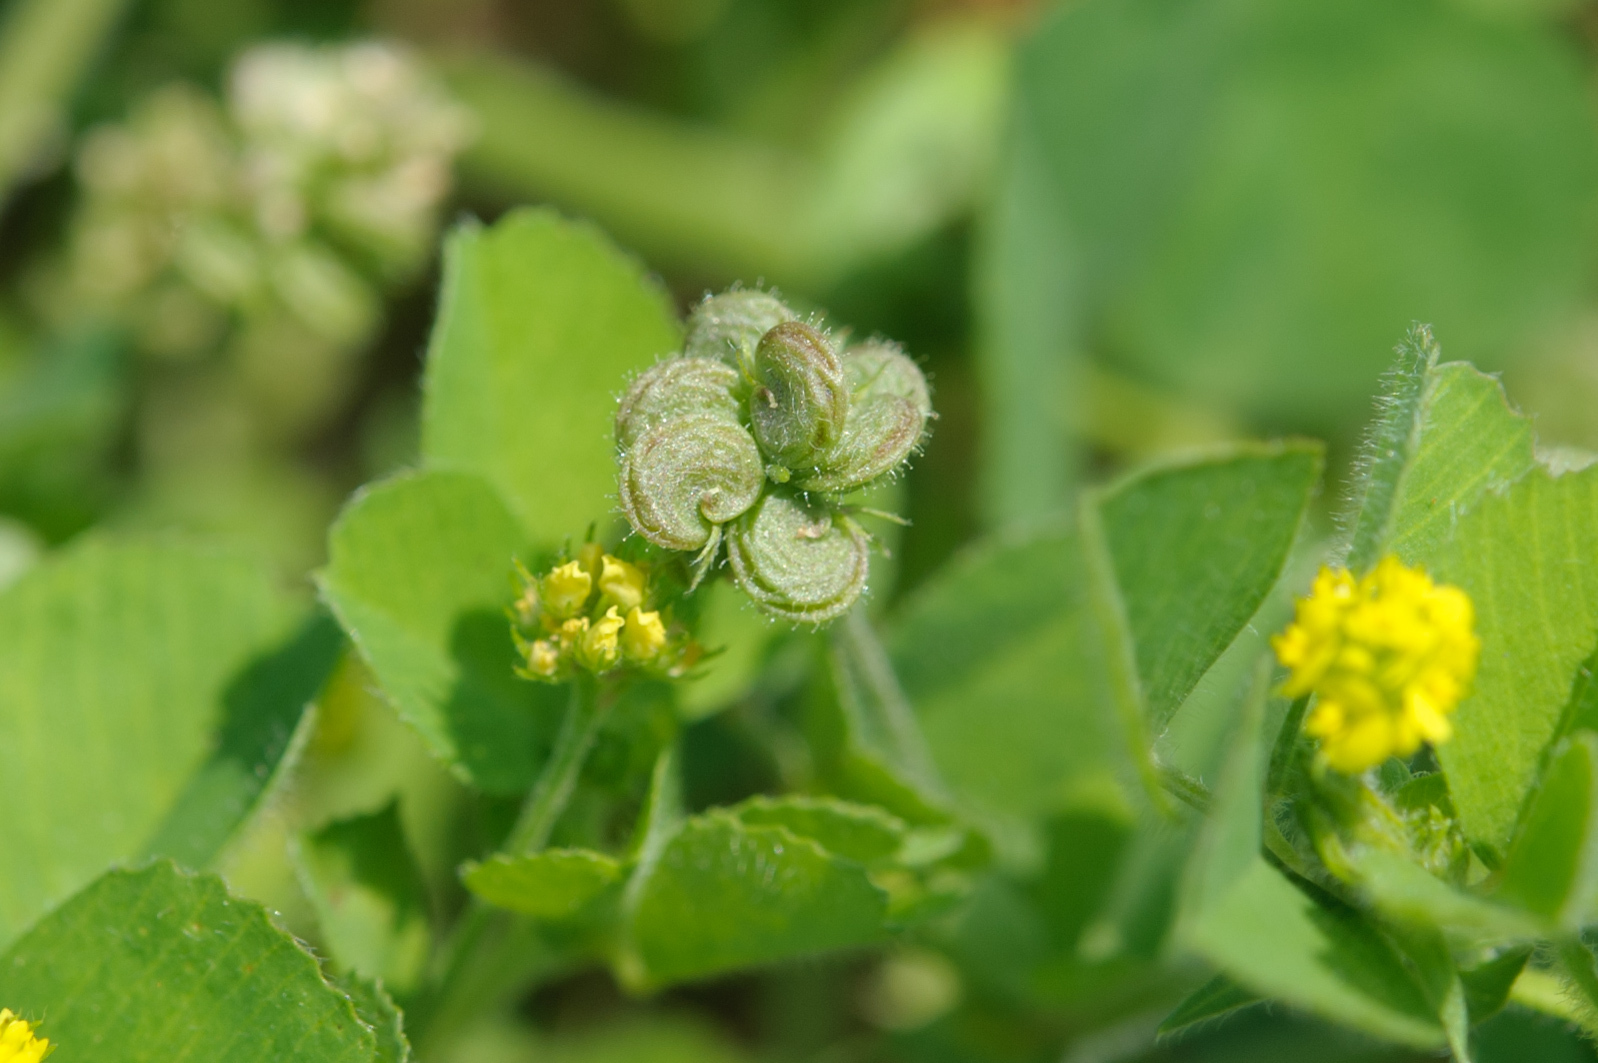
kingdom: Plantae
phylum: Tracheophyta
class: Magnoliopsida
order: Fabales
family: Fabaceae
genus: Medicago
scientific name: Medicago lupulina
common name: Black medick
